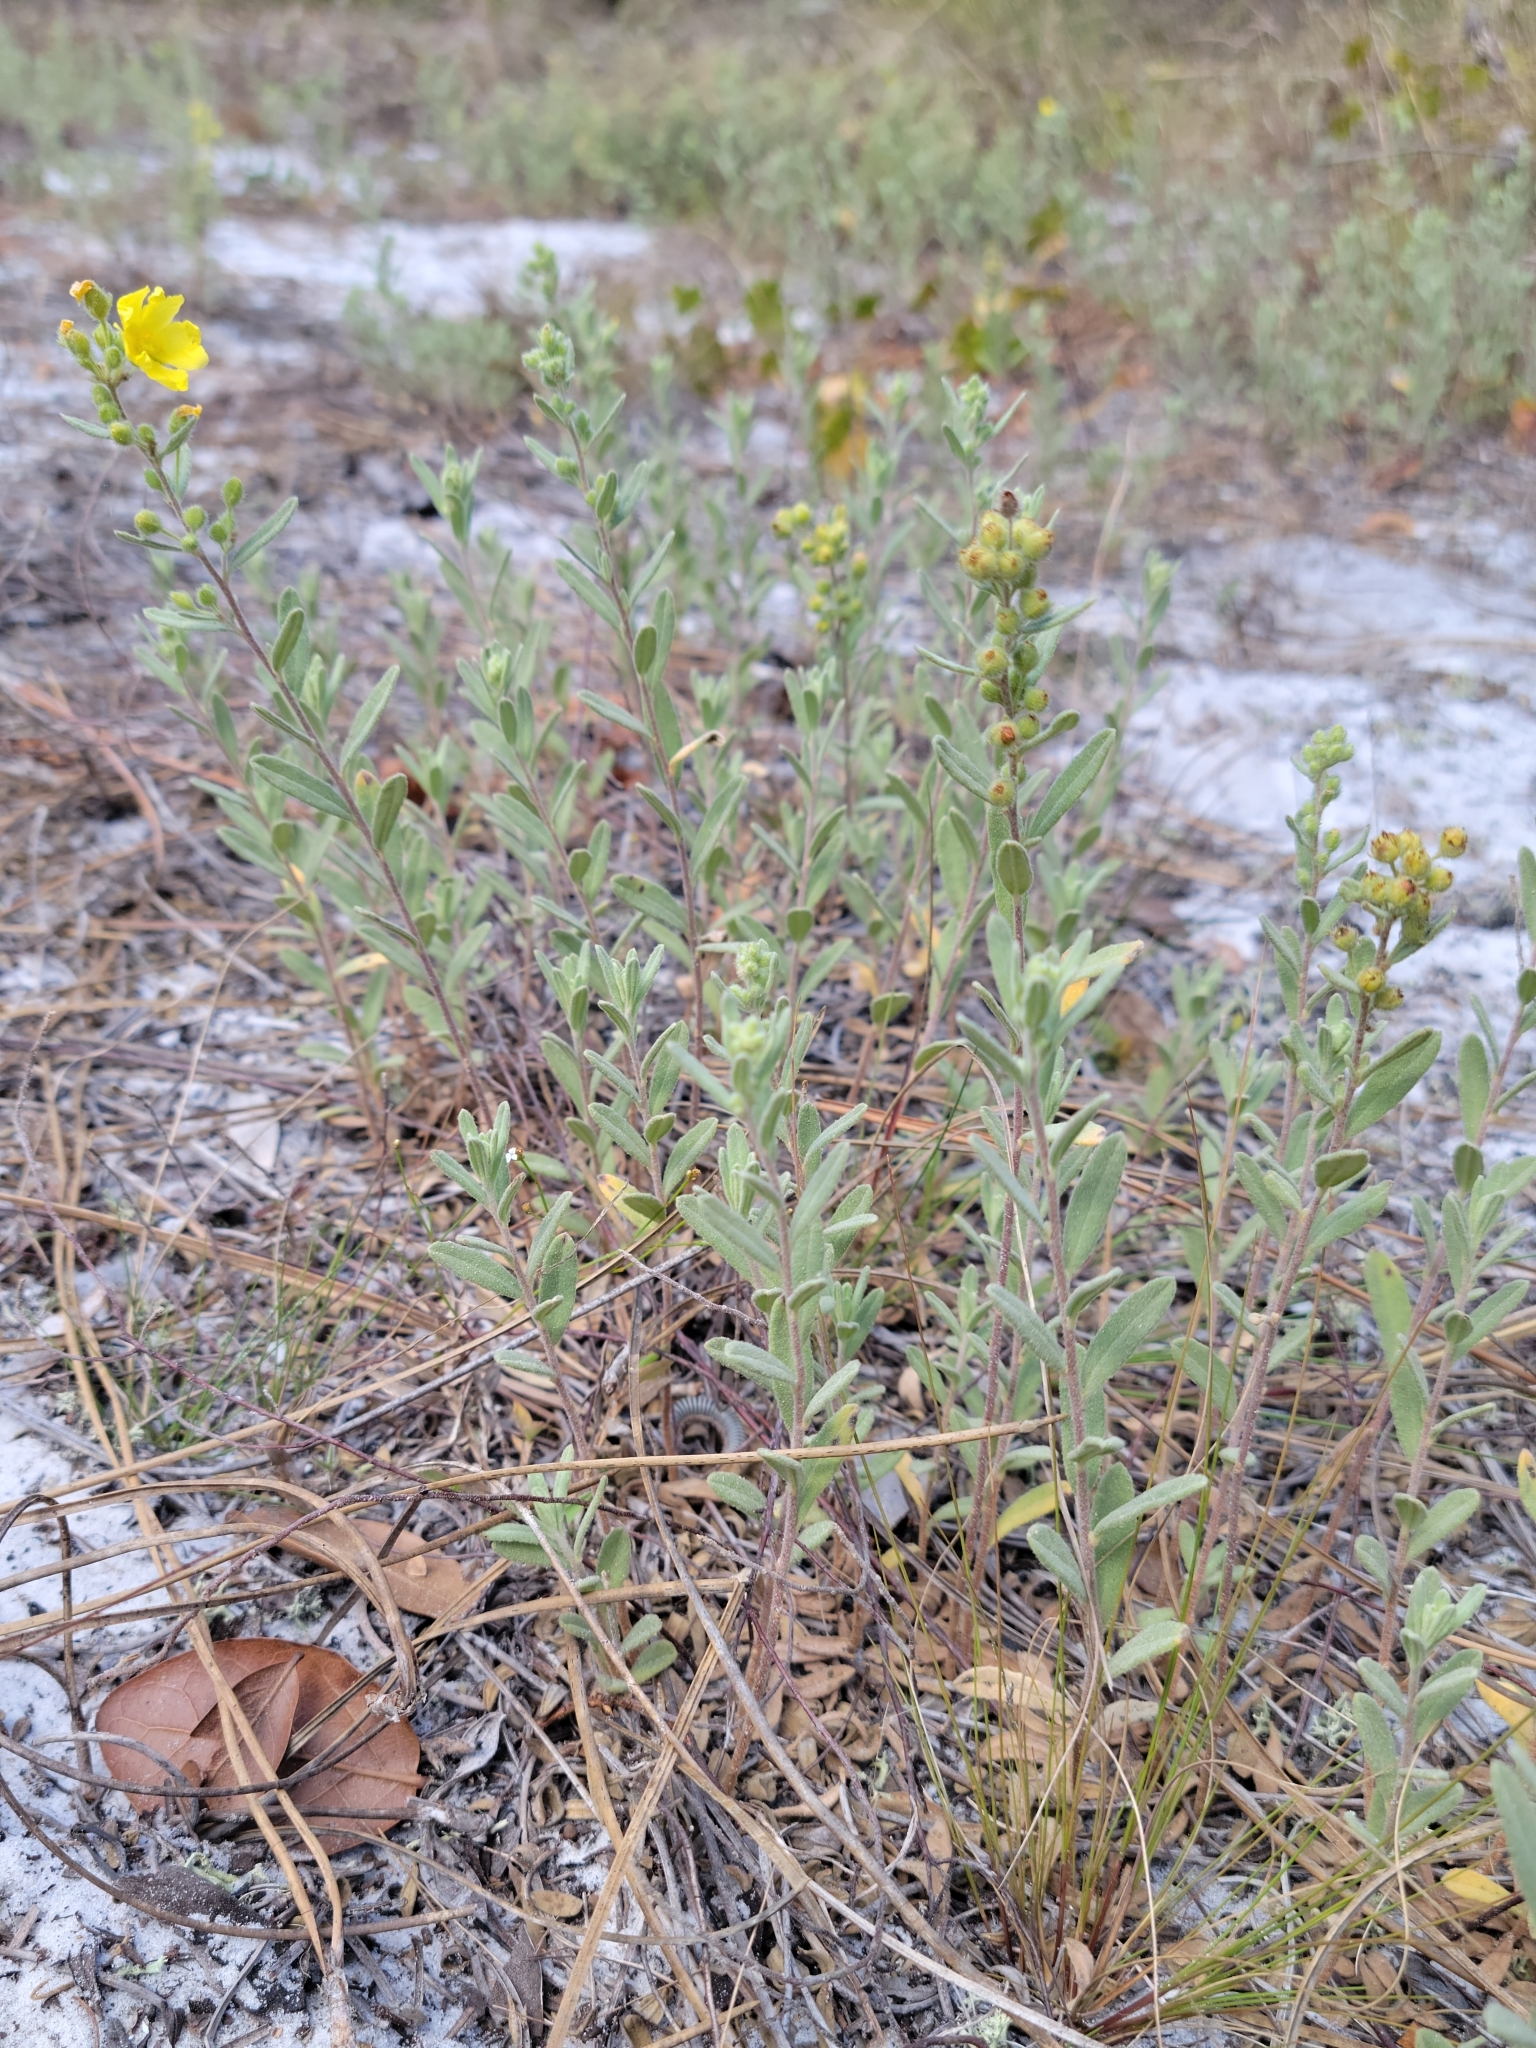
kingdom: Plantae
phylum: Tracheophyta
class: Magnoliopsida
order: Malvales
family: Cistaceae
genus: Crocanthemum
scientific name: Crocanthemum nashii
